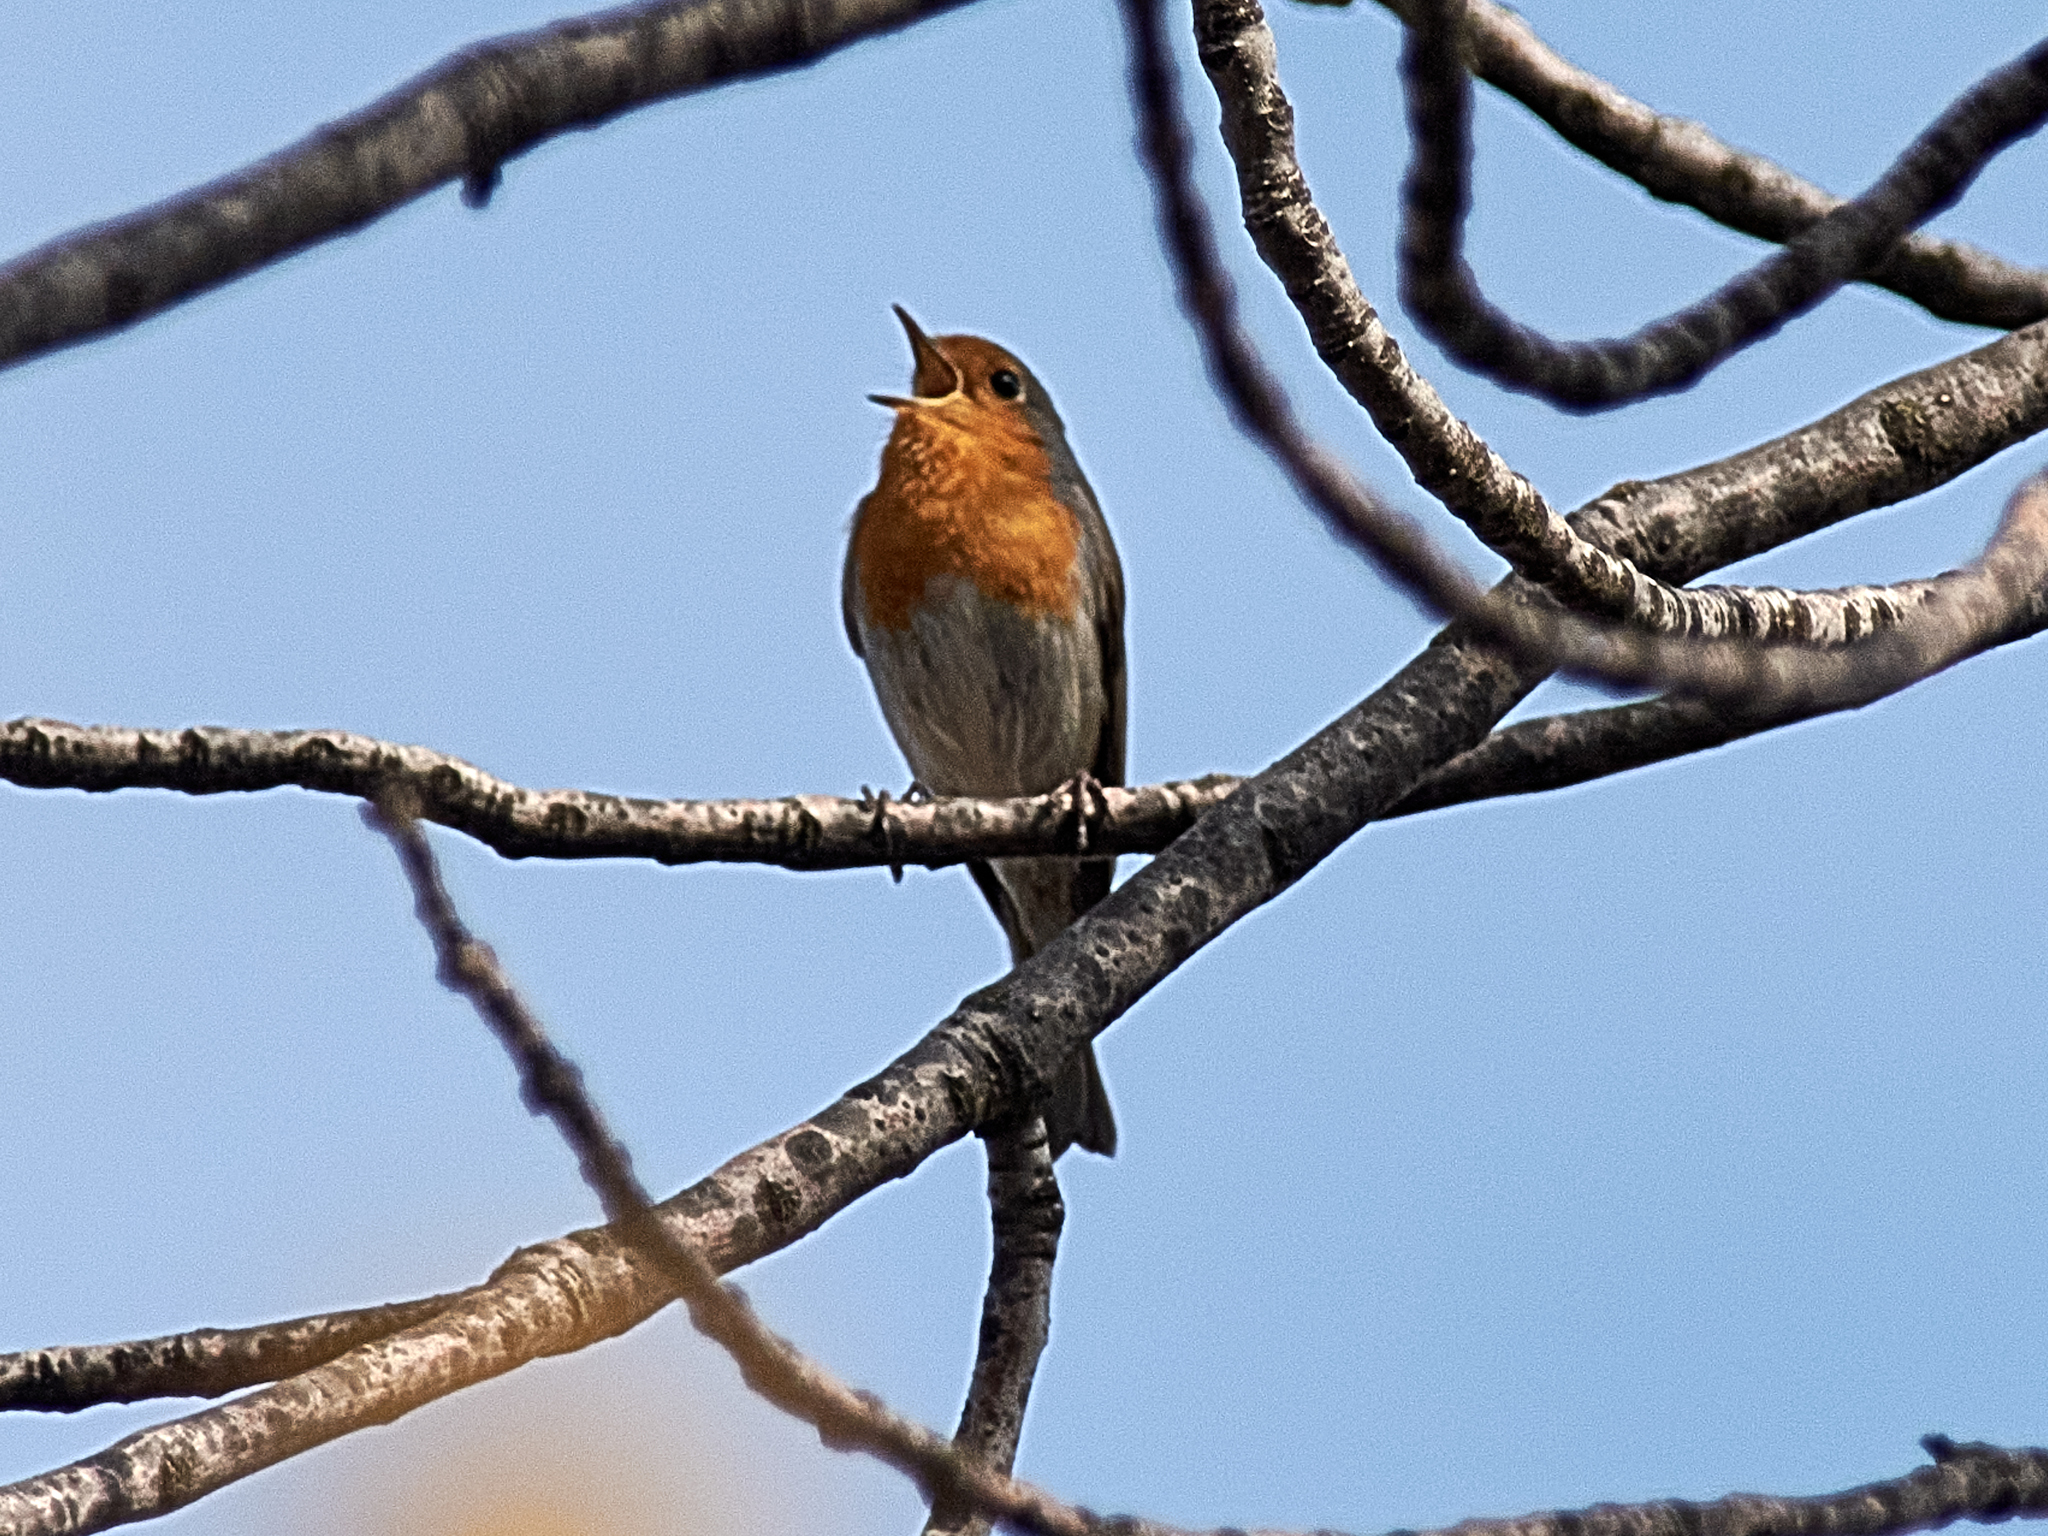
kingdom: Animalia
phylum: Chordata
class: Aves
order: Passeriformes
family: Muscicapidae
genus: Erithacus
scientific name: Erithacus rubecula
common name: European robin
